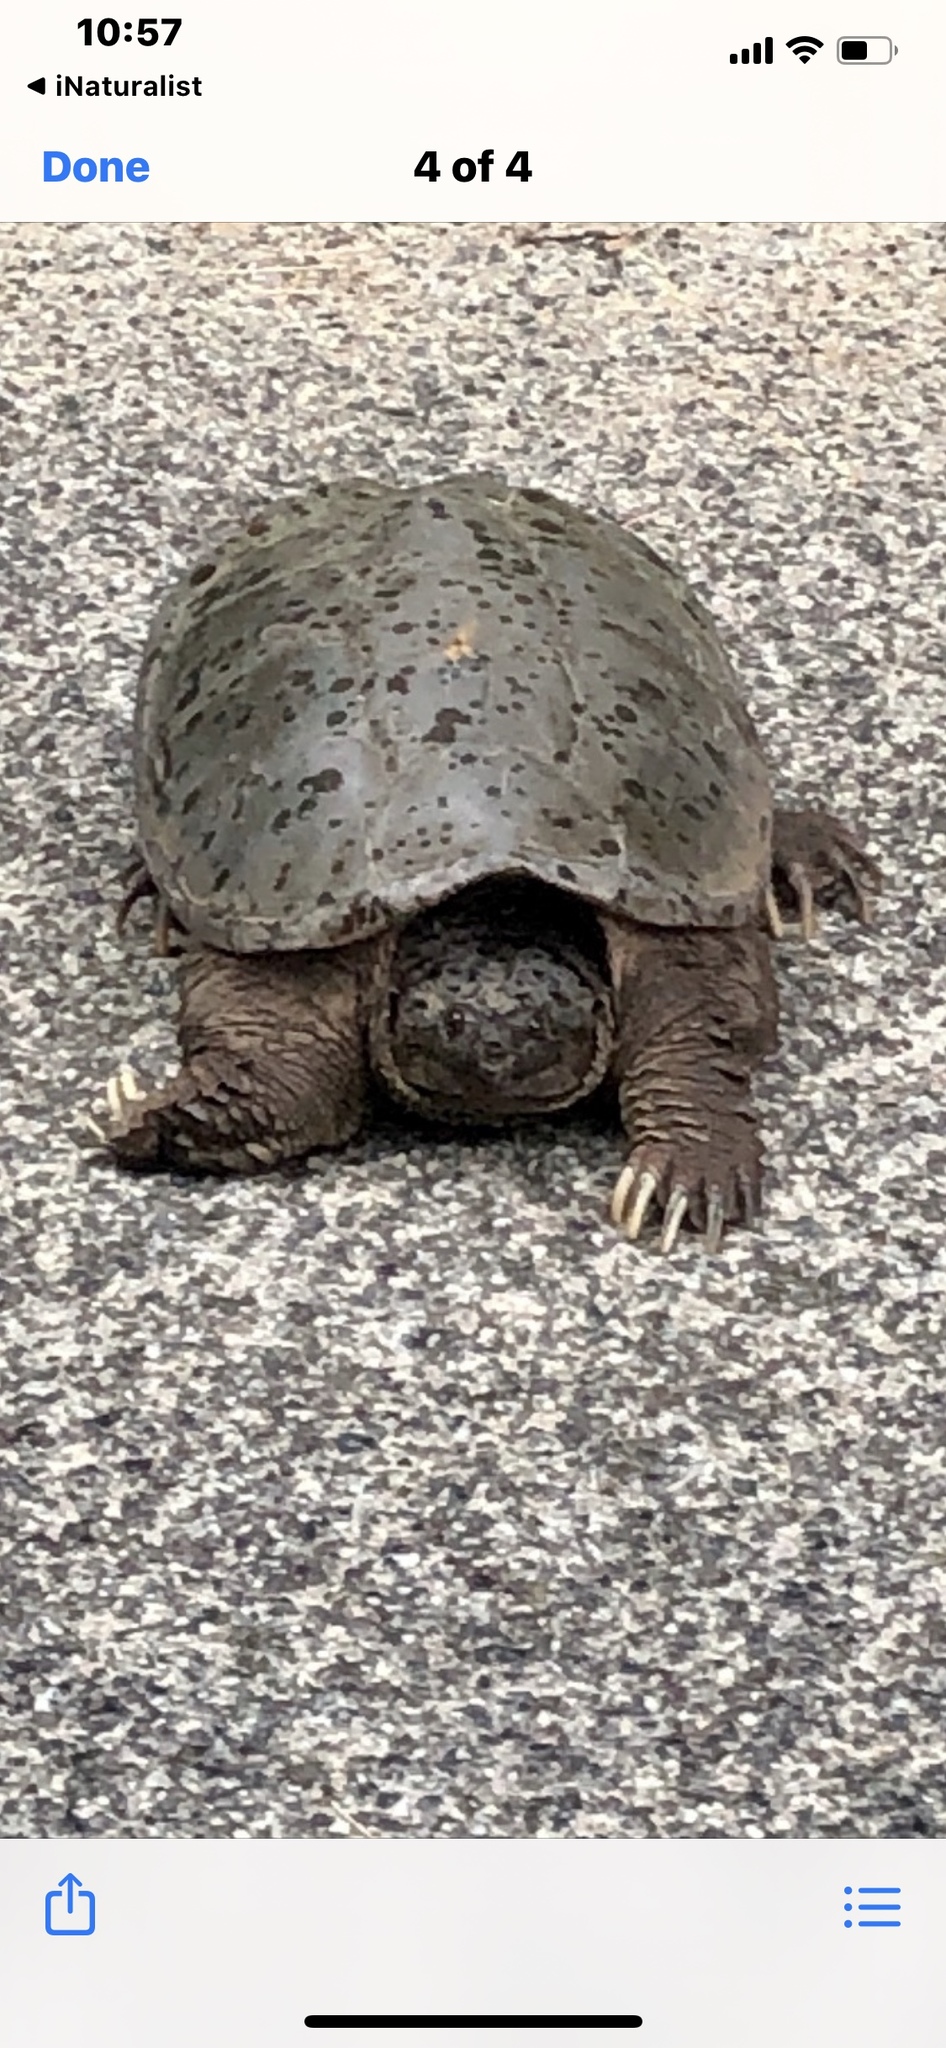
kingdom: Animalia
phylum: Chordata
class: Testudines
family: Chelydridae
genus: Chelydra
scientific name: Chelydra serpentina
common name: Common snapping turtle
